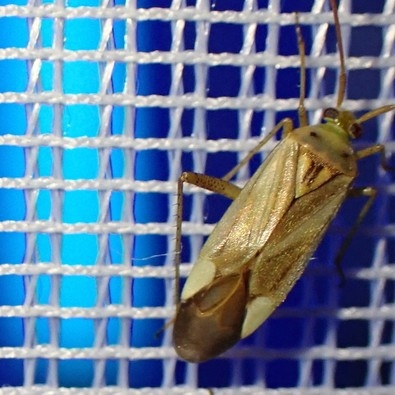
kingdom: Animalia
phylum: Arthropoda
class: Insecta
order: Hemiptera
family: Miridae
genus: Adelphocoris
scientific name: Adelphocoris lineolatus
